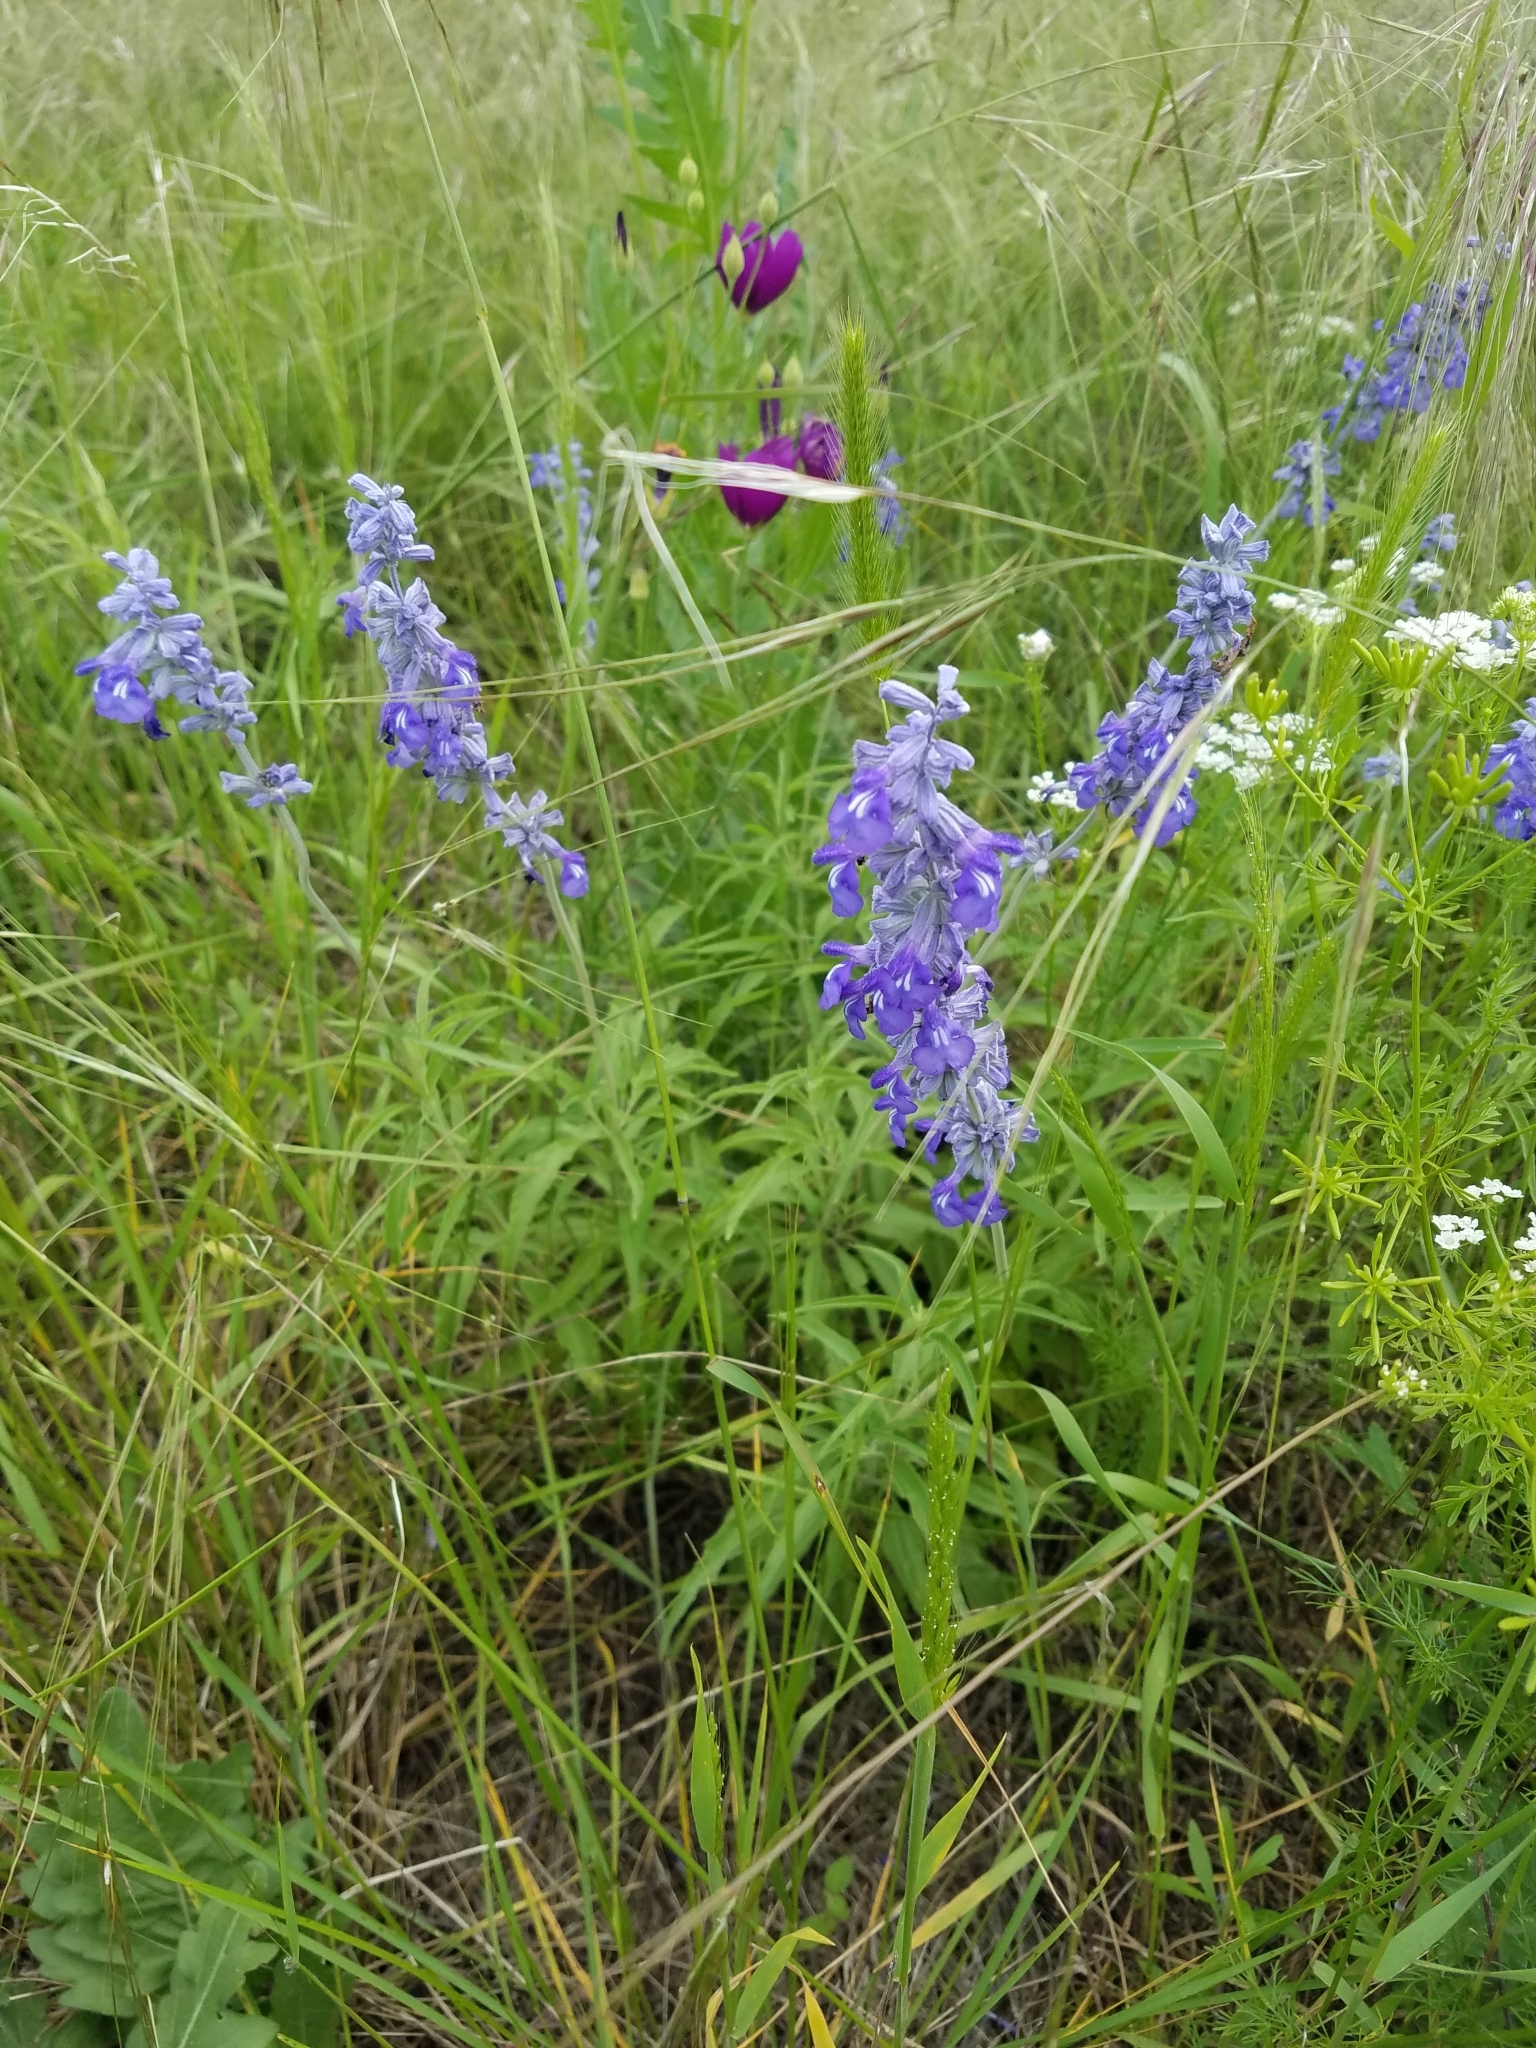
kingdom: Plantae
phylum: Tracheophyta
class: Magnoliopsida
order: Lamiales
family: Lamiaceae
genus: Salvia
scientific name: Salvia farinacea
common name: Mealy sage
